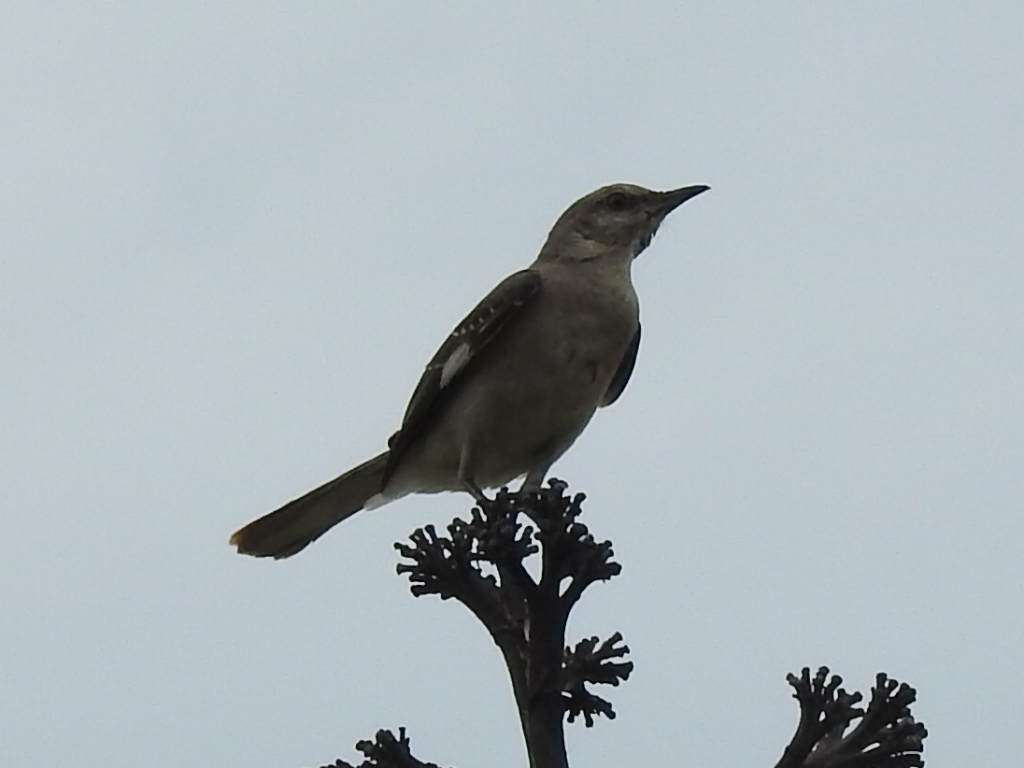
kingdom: Animalia
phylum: Chordata
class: Aves
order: Passeriformes
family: Mimidae
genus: Mimus
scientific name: Mimus polyglottos
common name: Northern mockingbird
